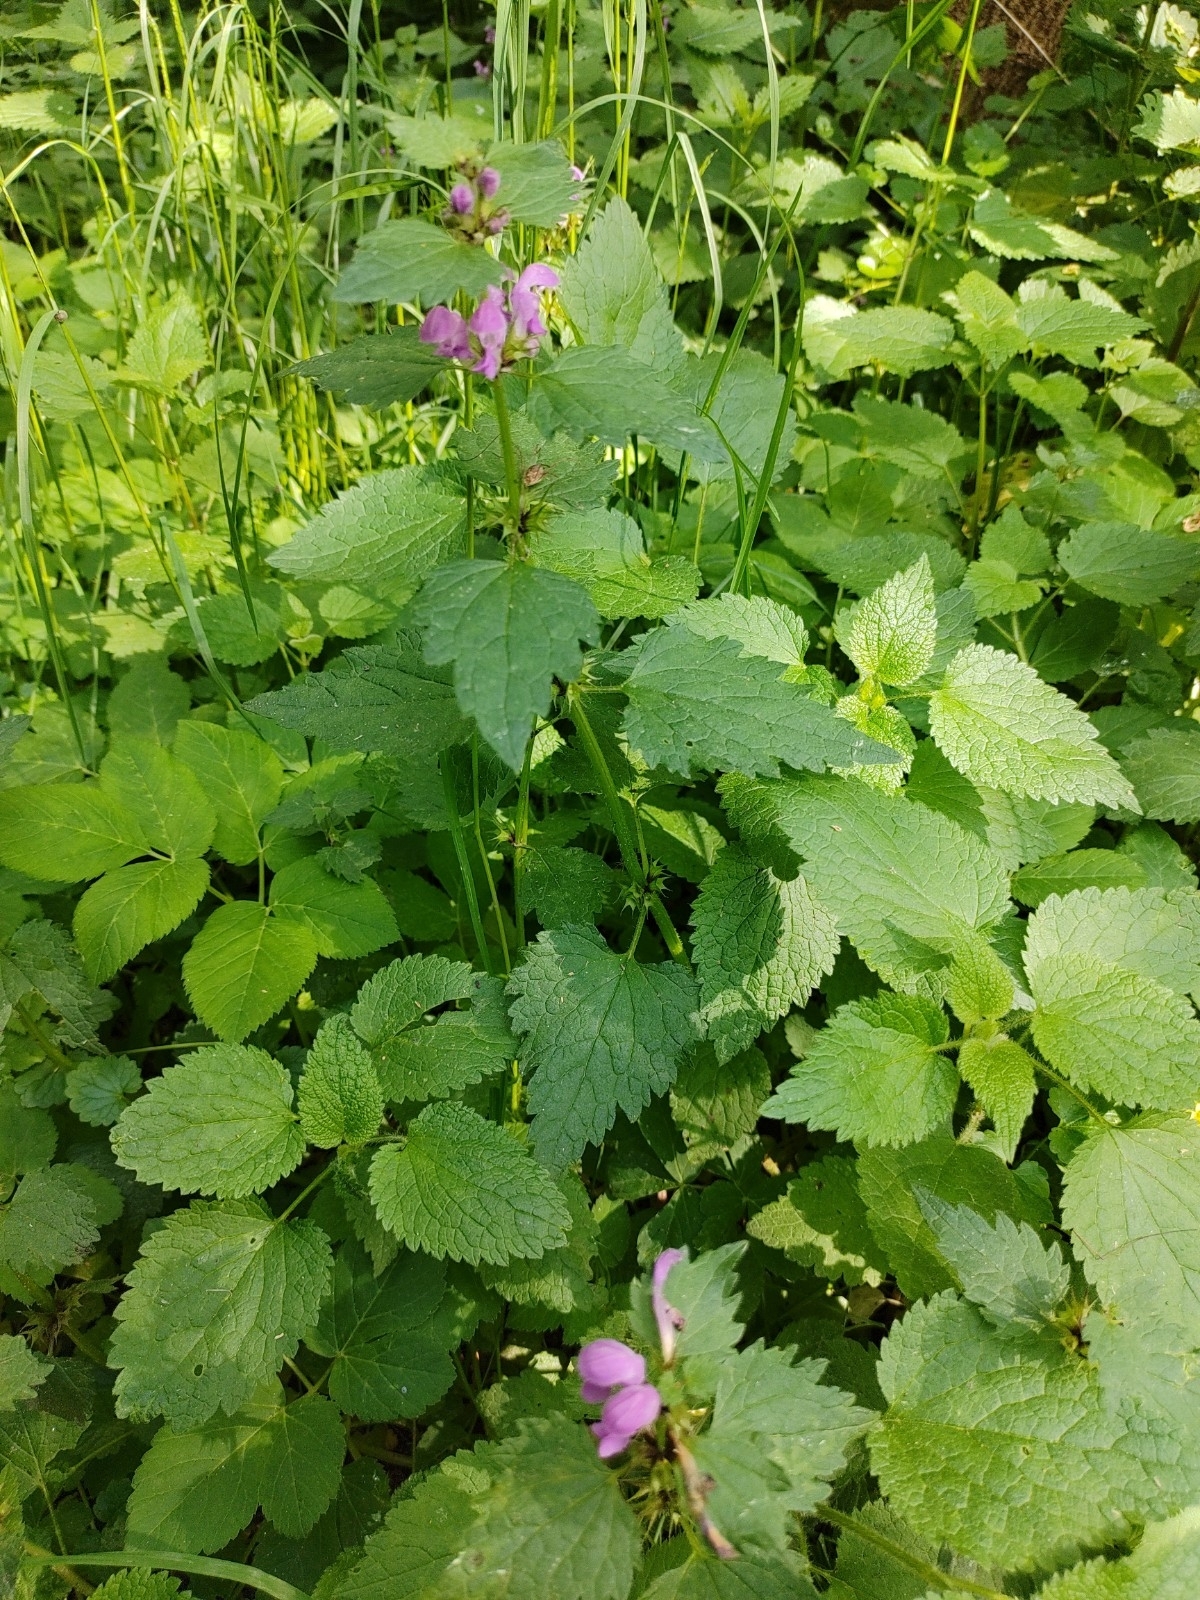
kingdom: Plantae
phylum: Tracheophyta
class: Magnoliopsida
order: Lamiales
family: Lamiaceae
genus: Lamium
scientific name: Lamium maculatum
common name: Spotted dead-nettle
